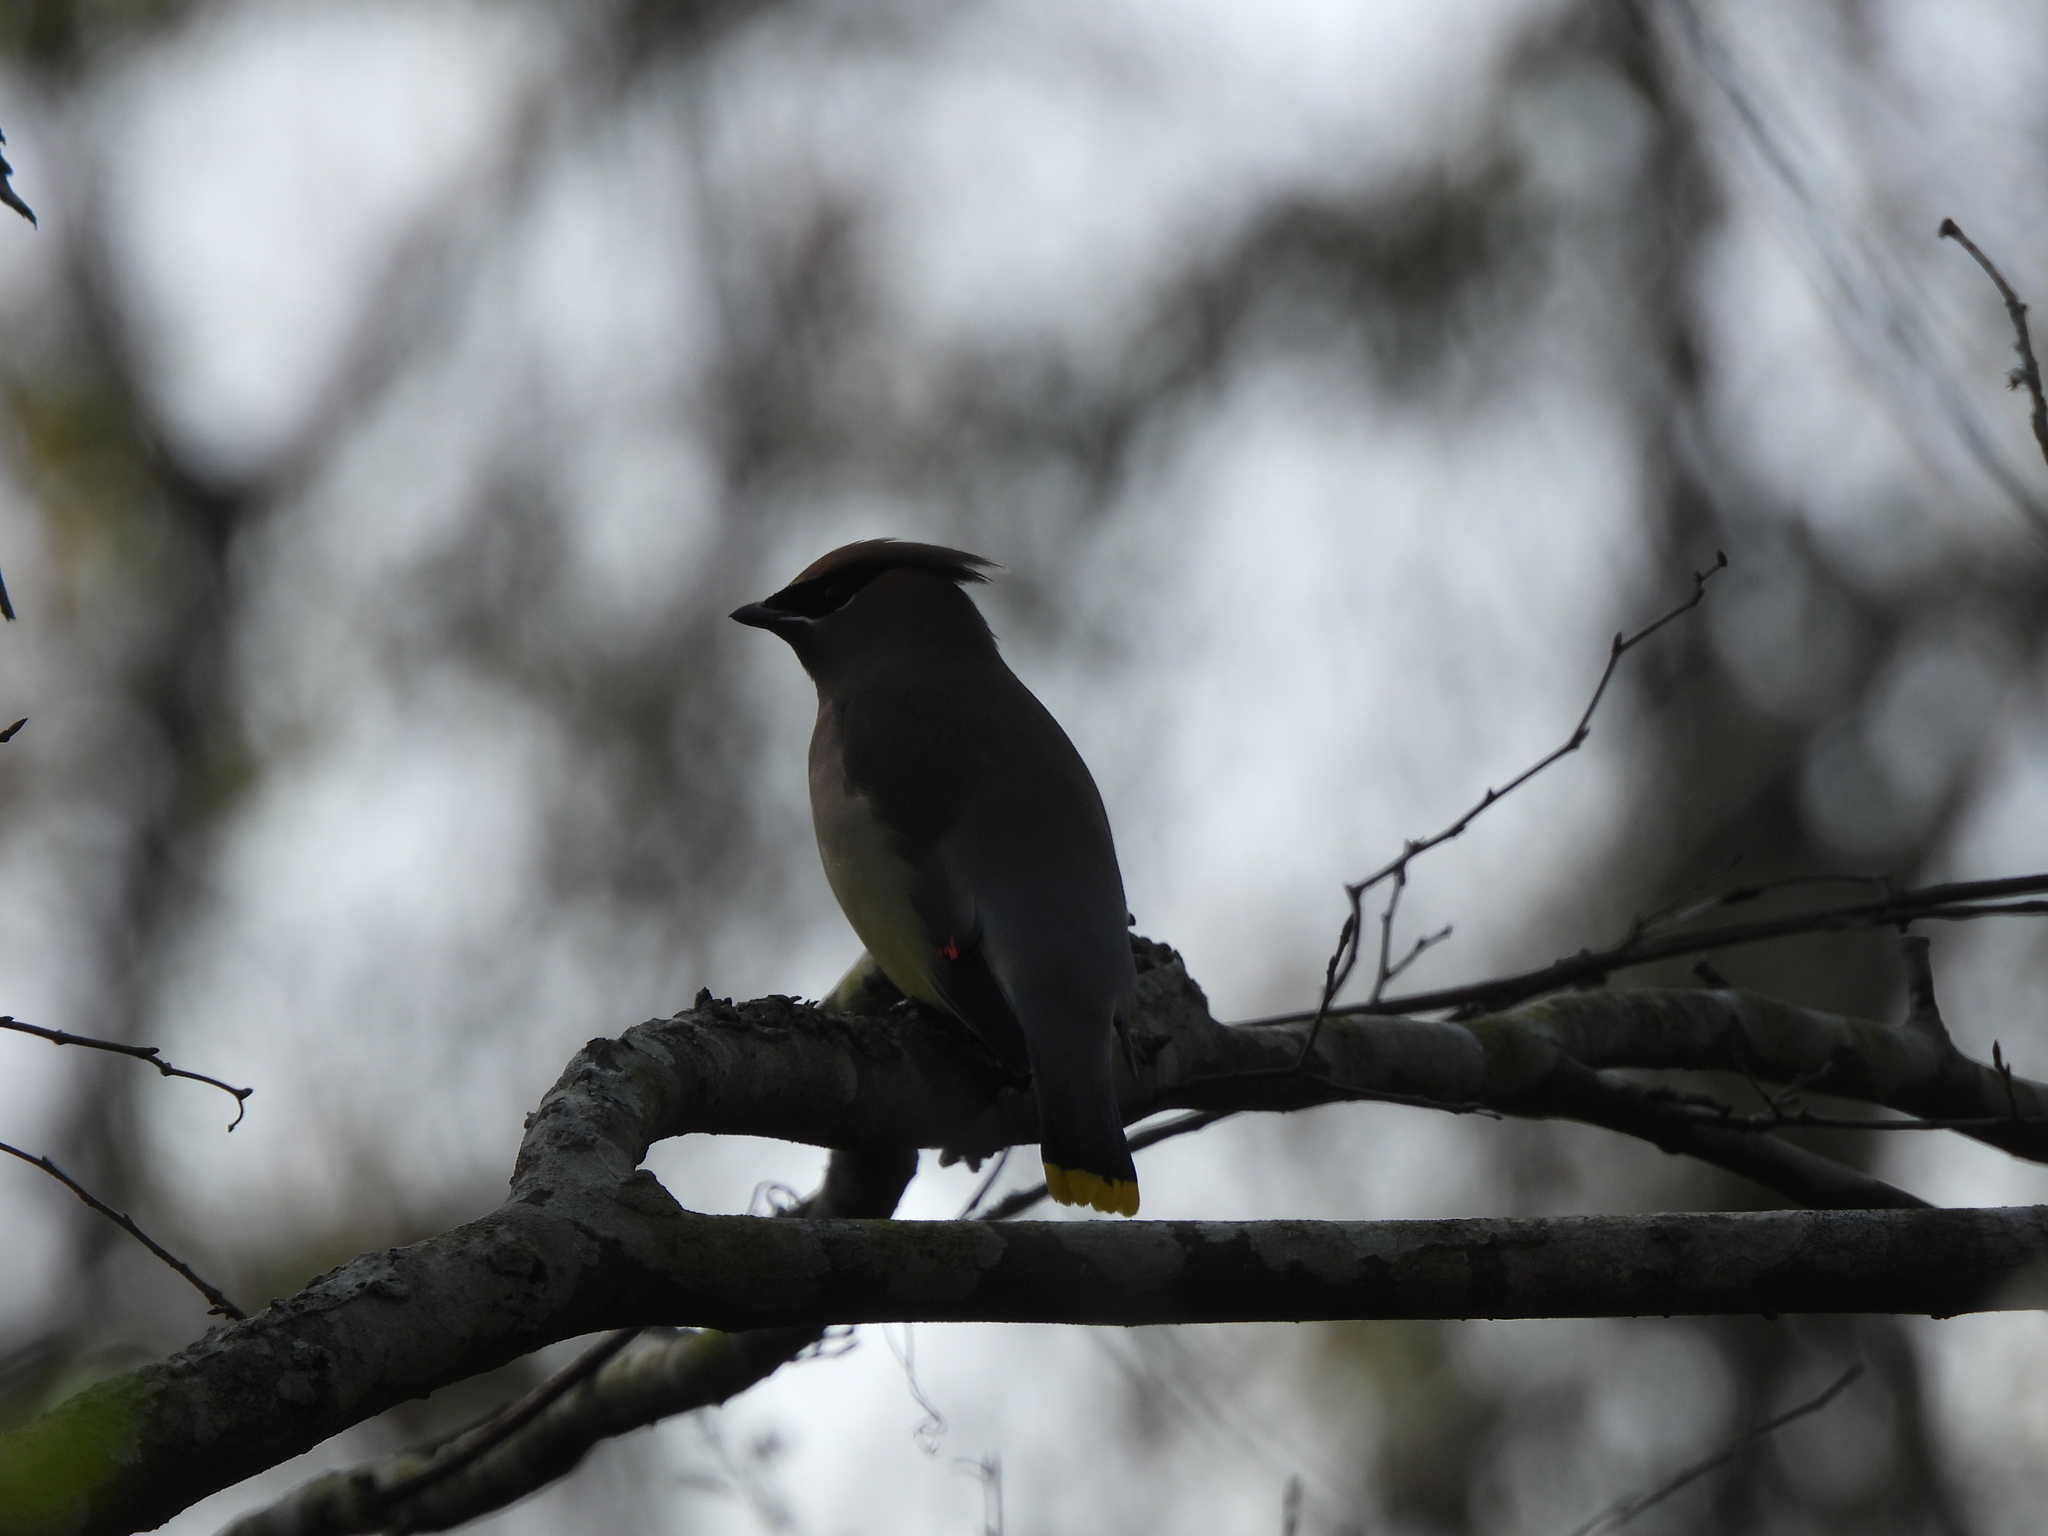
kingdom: Animalia
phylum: Chordata
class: Aves
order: Passeriformes
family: Bombycillidae
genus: Bombycilla
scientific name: Bombycilla cedrorum
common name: Cedar waxwing
